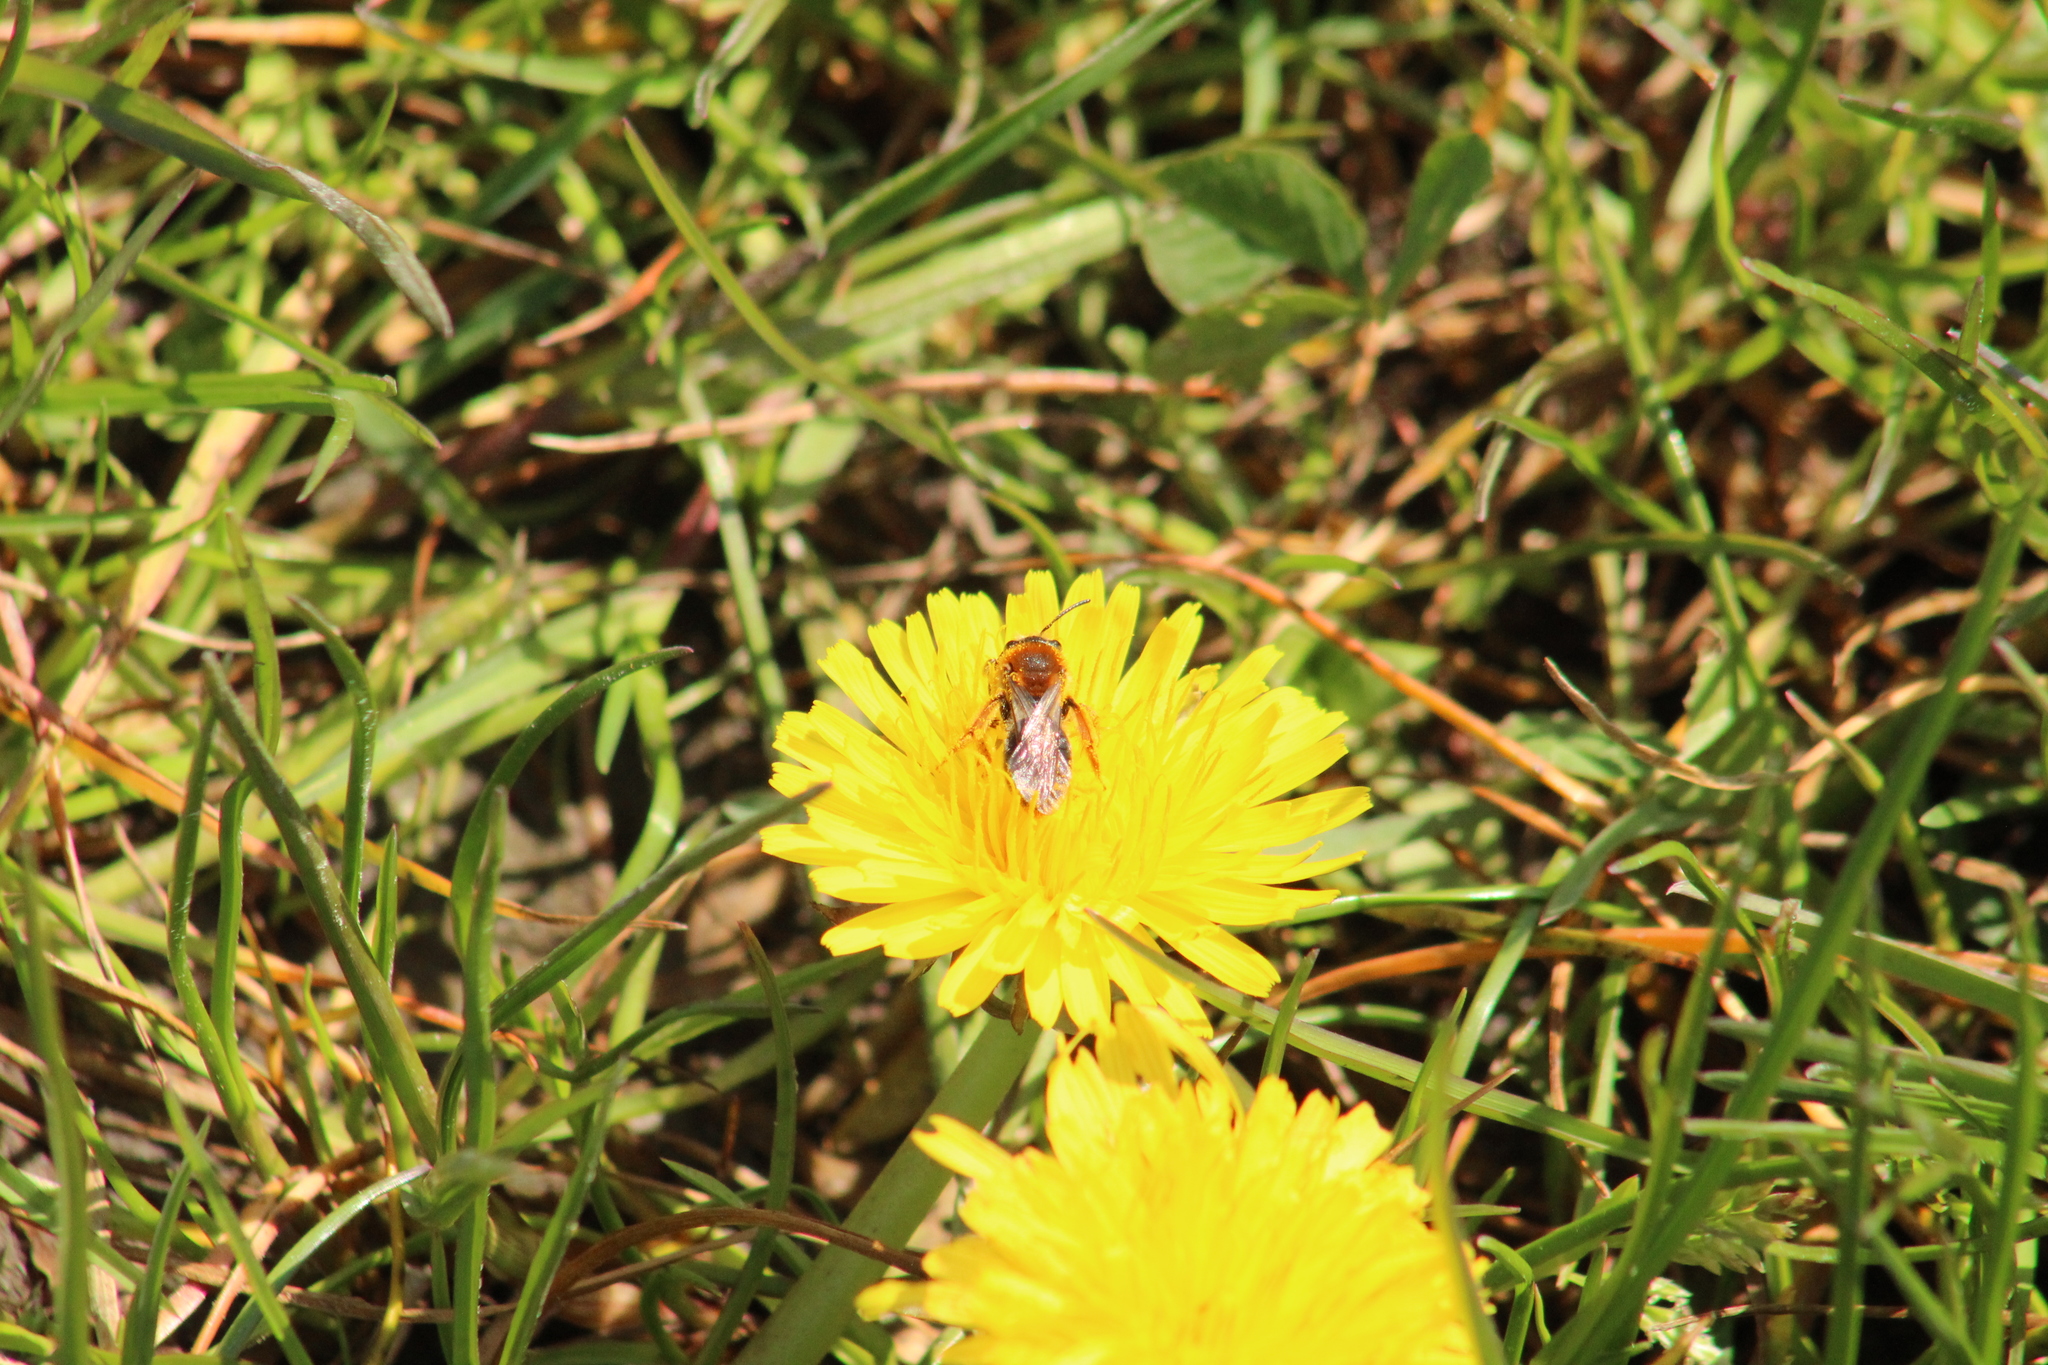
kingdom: Animalia
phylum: Arthropoda
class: Insecta
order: Hymenoptera
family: Andrenidae
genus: Andrena
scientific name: Andrena haemorrhoa
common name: Early mining bee
